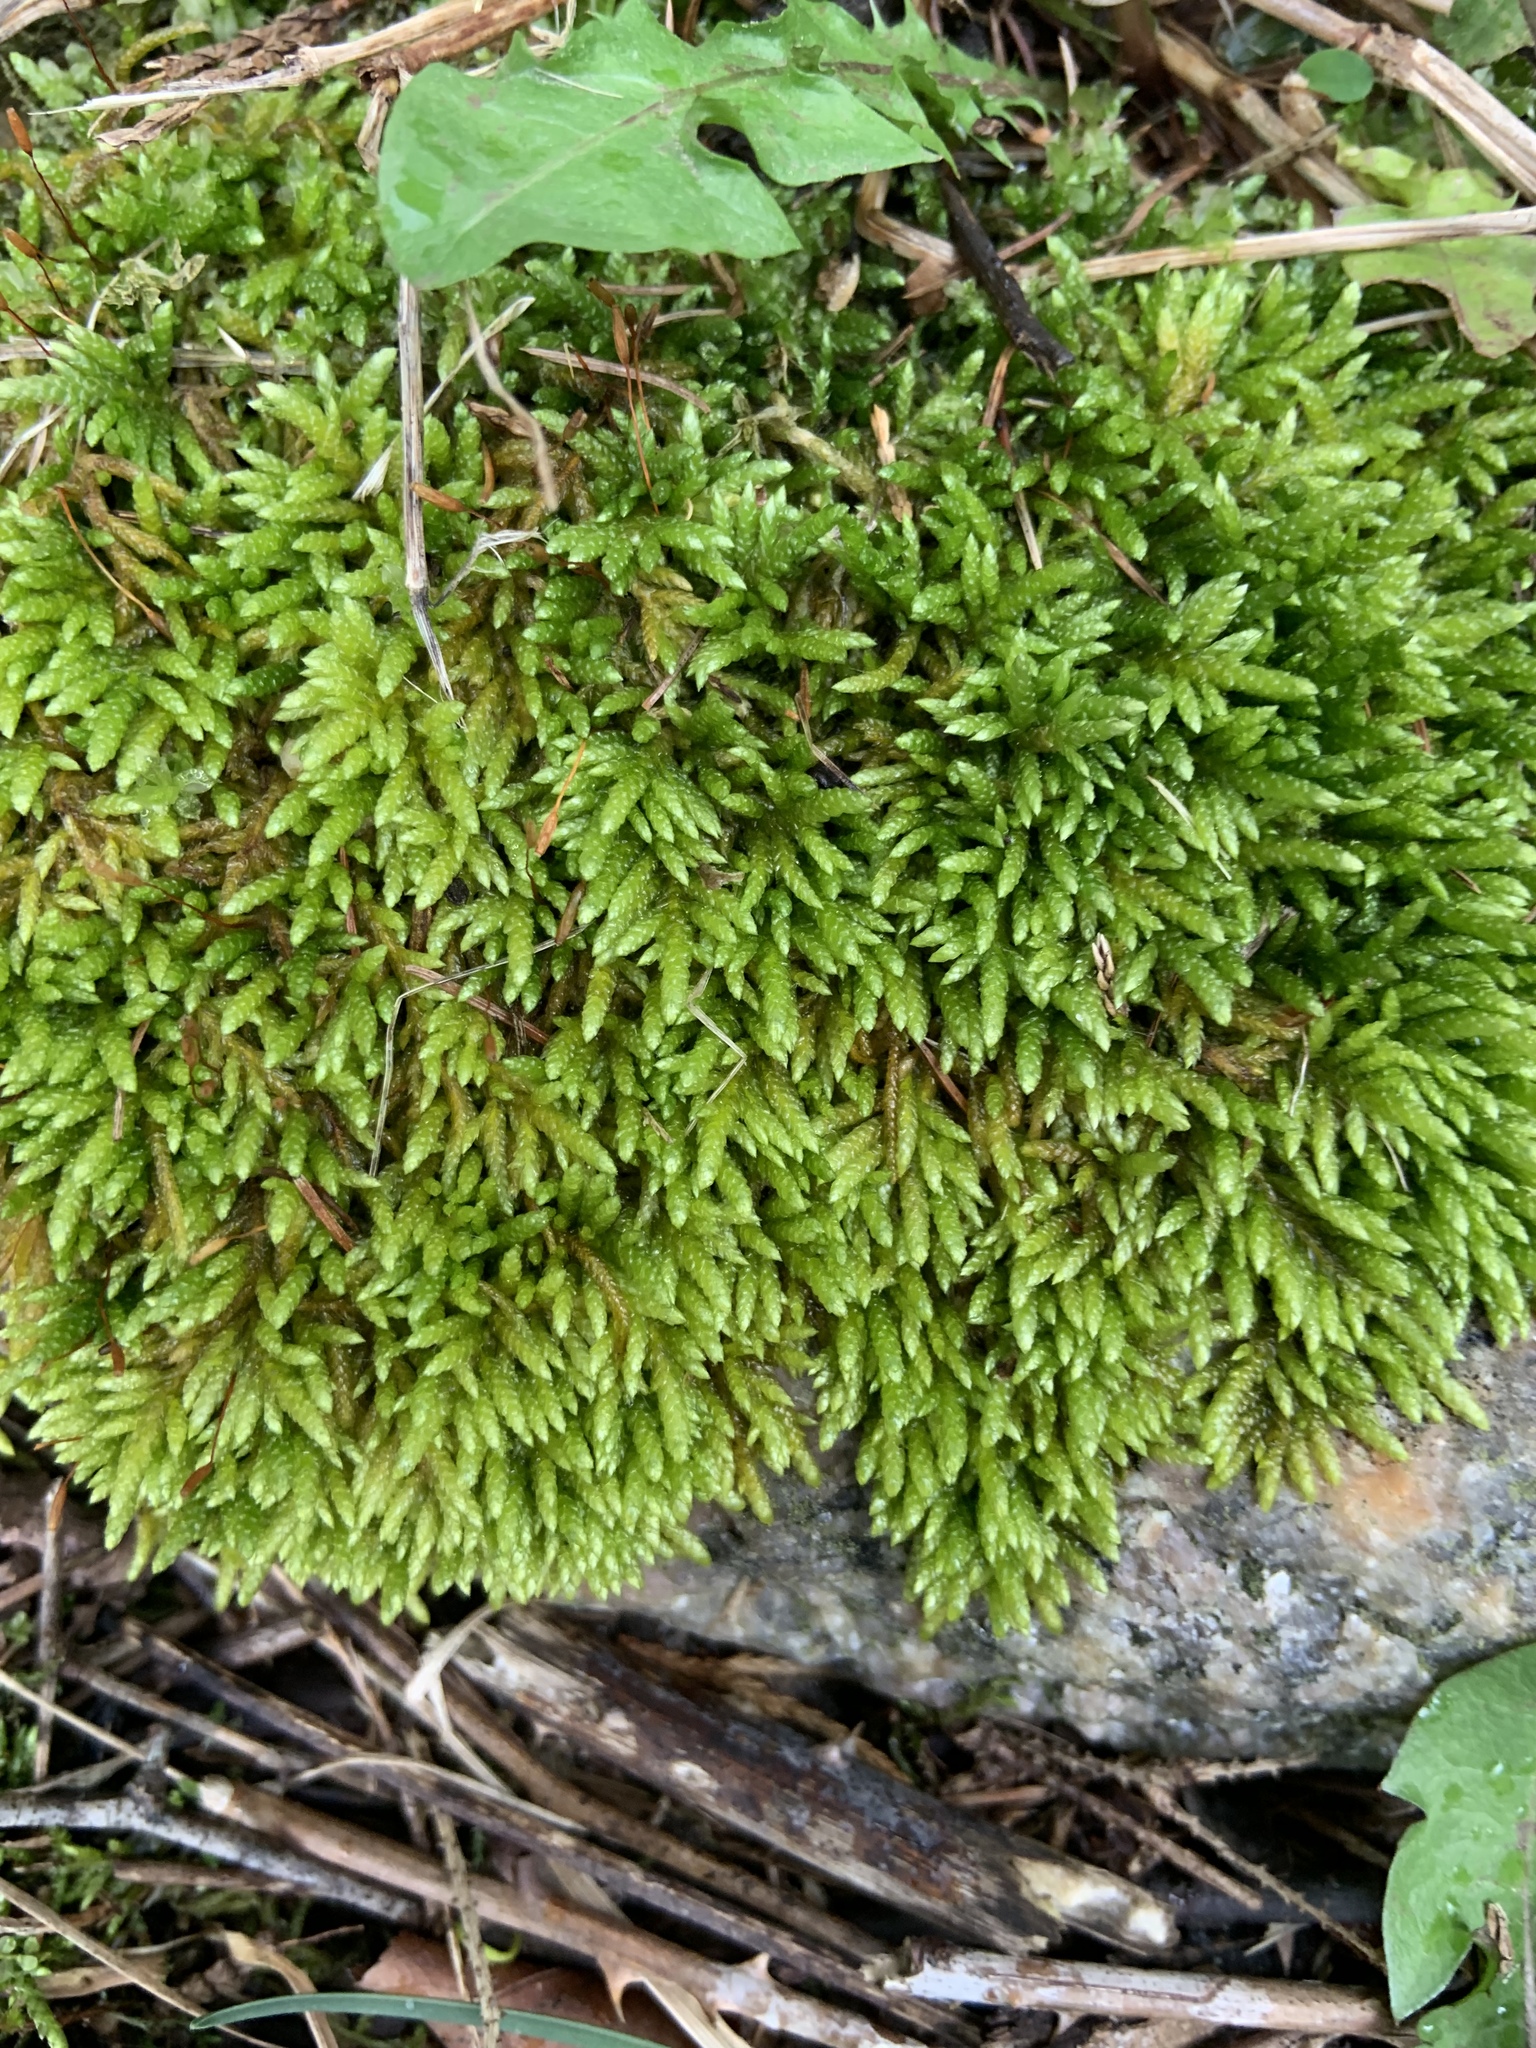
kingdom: Plantae
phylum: Bryophyta
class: Bryopsida
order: Hypnales
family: Brachytheciaceae
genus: Bryoandersonia
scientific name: Bryoandersonia illecebra
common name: Spoon-leaved moss
